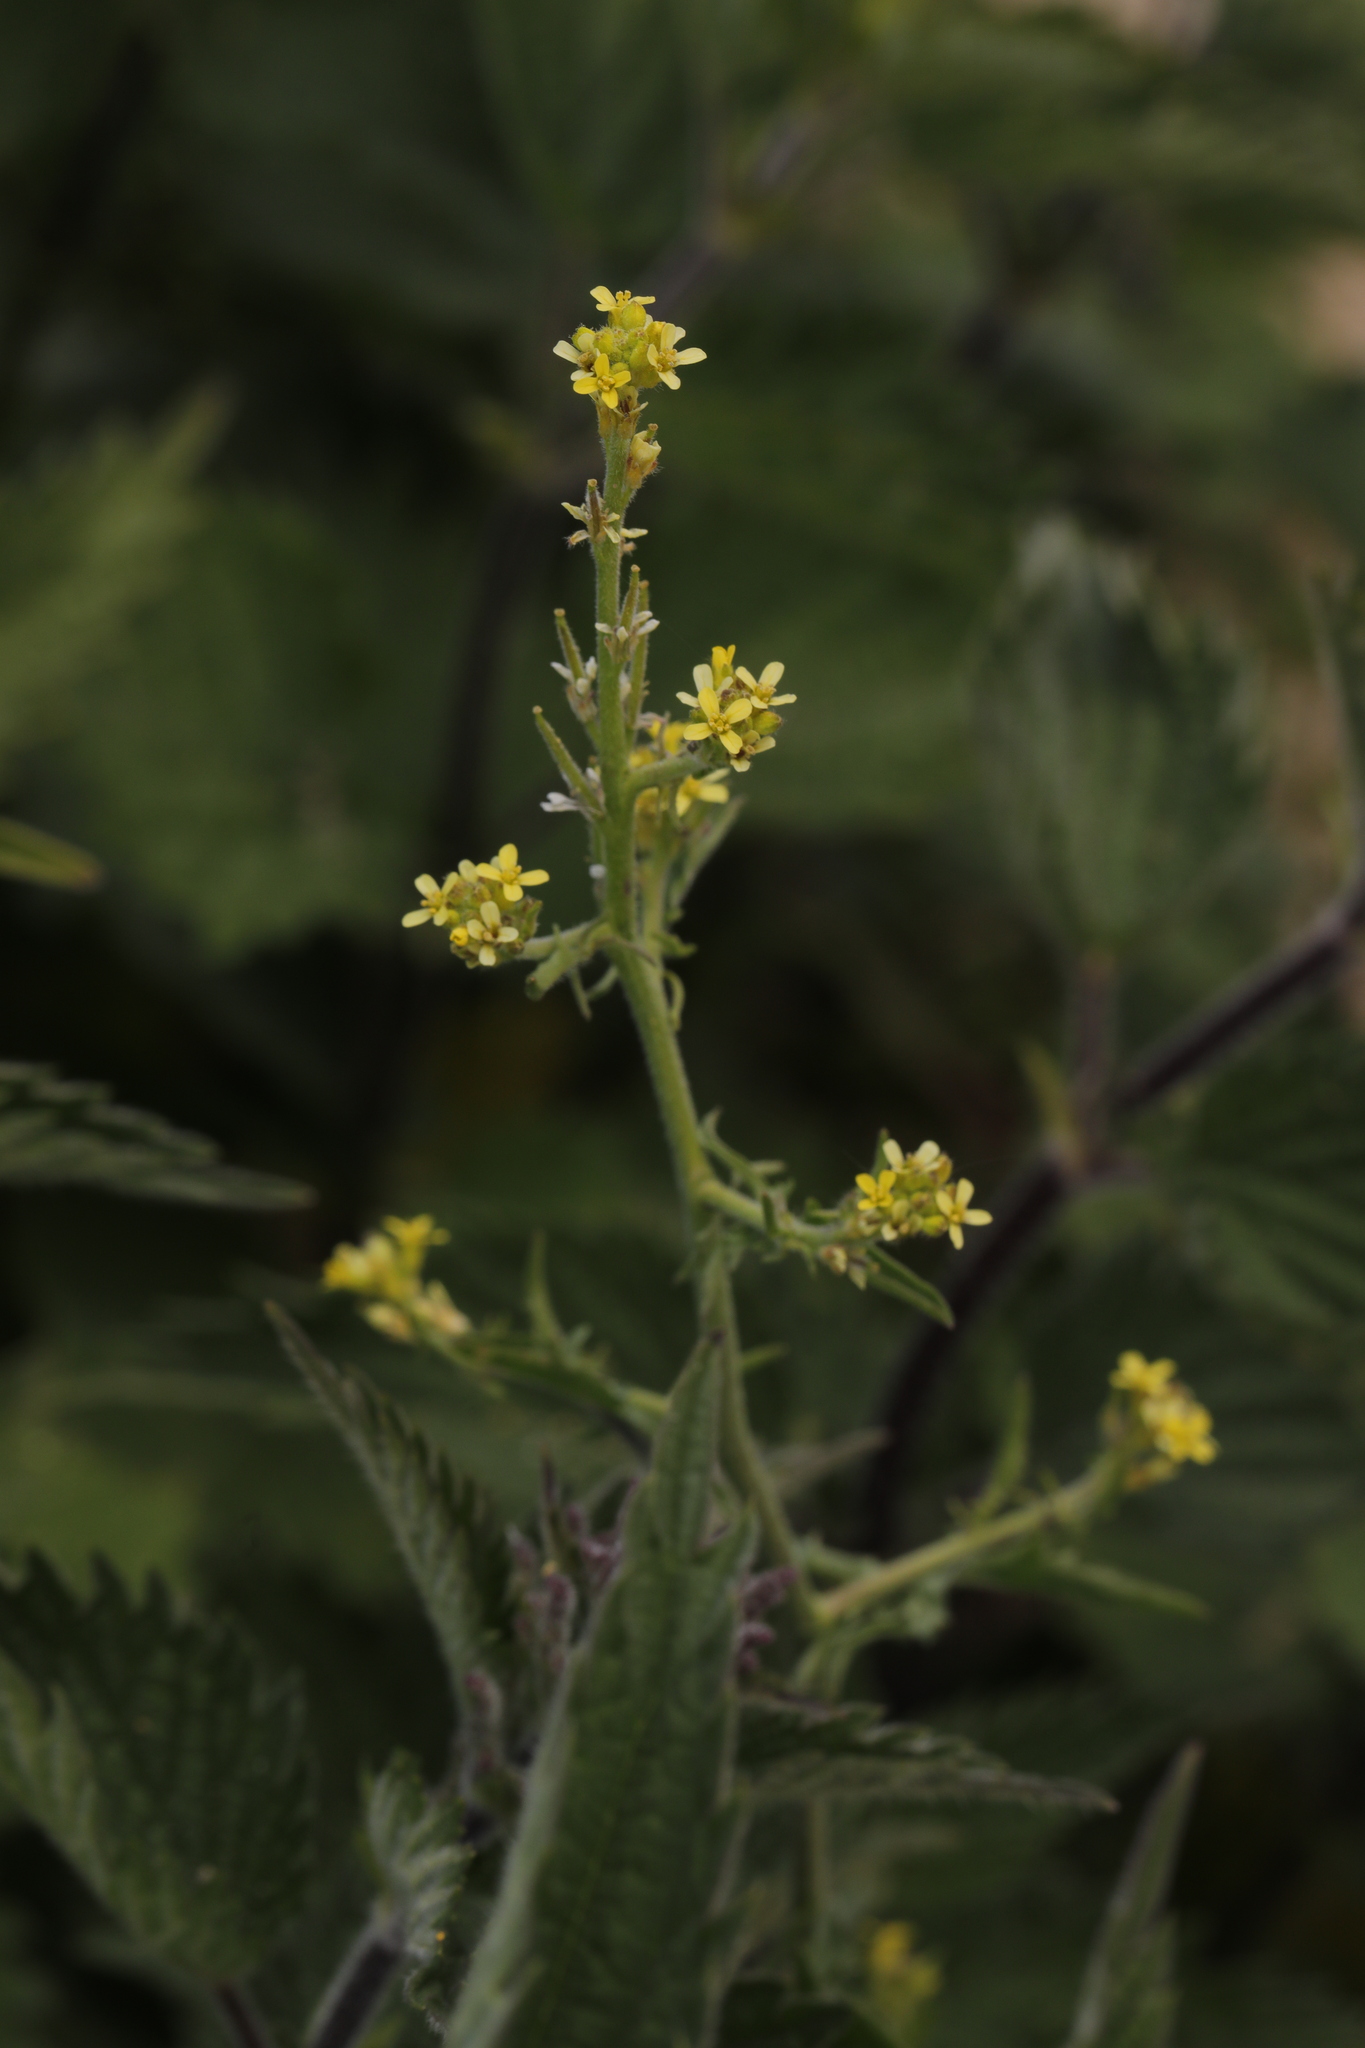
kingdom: Plantae
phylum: Tracheophyta
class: Magnoliopsida
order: Brassicales
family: Brassicaceae
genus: Sisymbrium
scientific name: Sisymbrium officinale
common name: Hedge mustard
